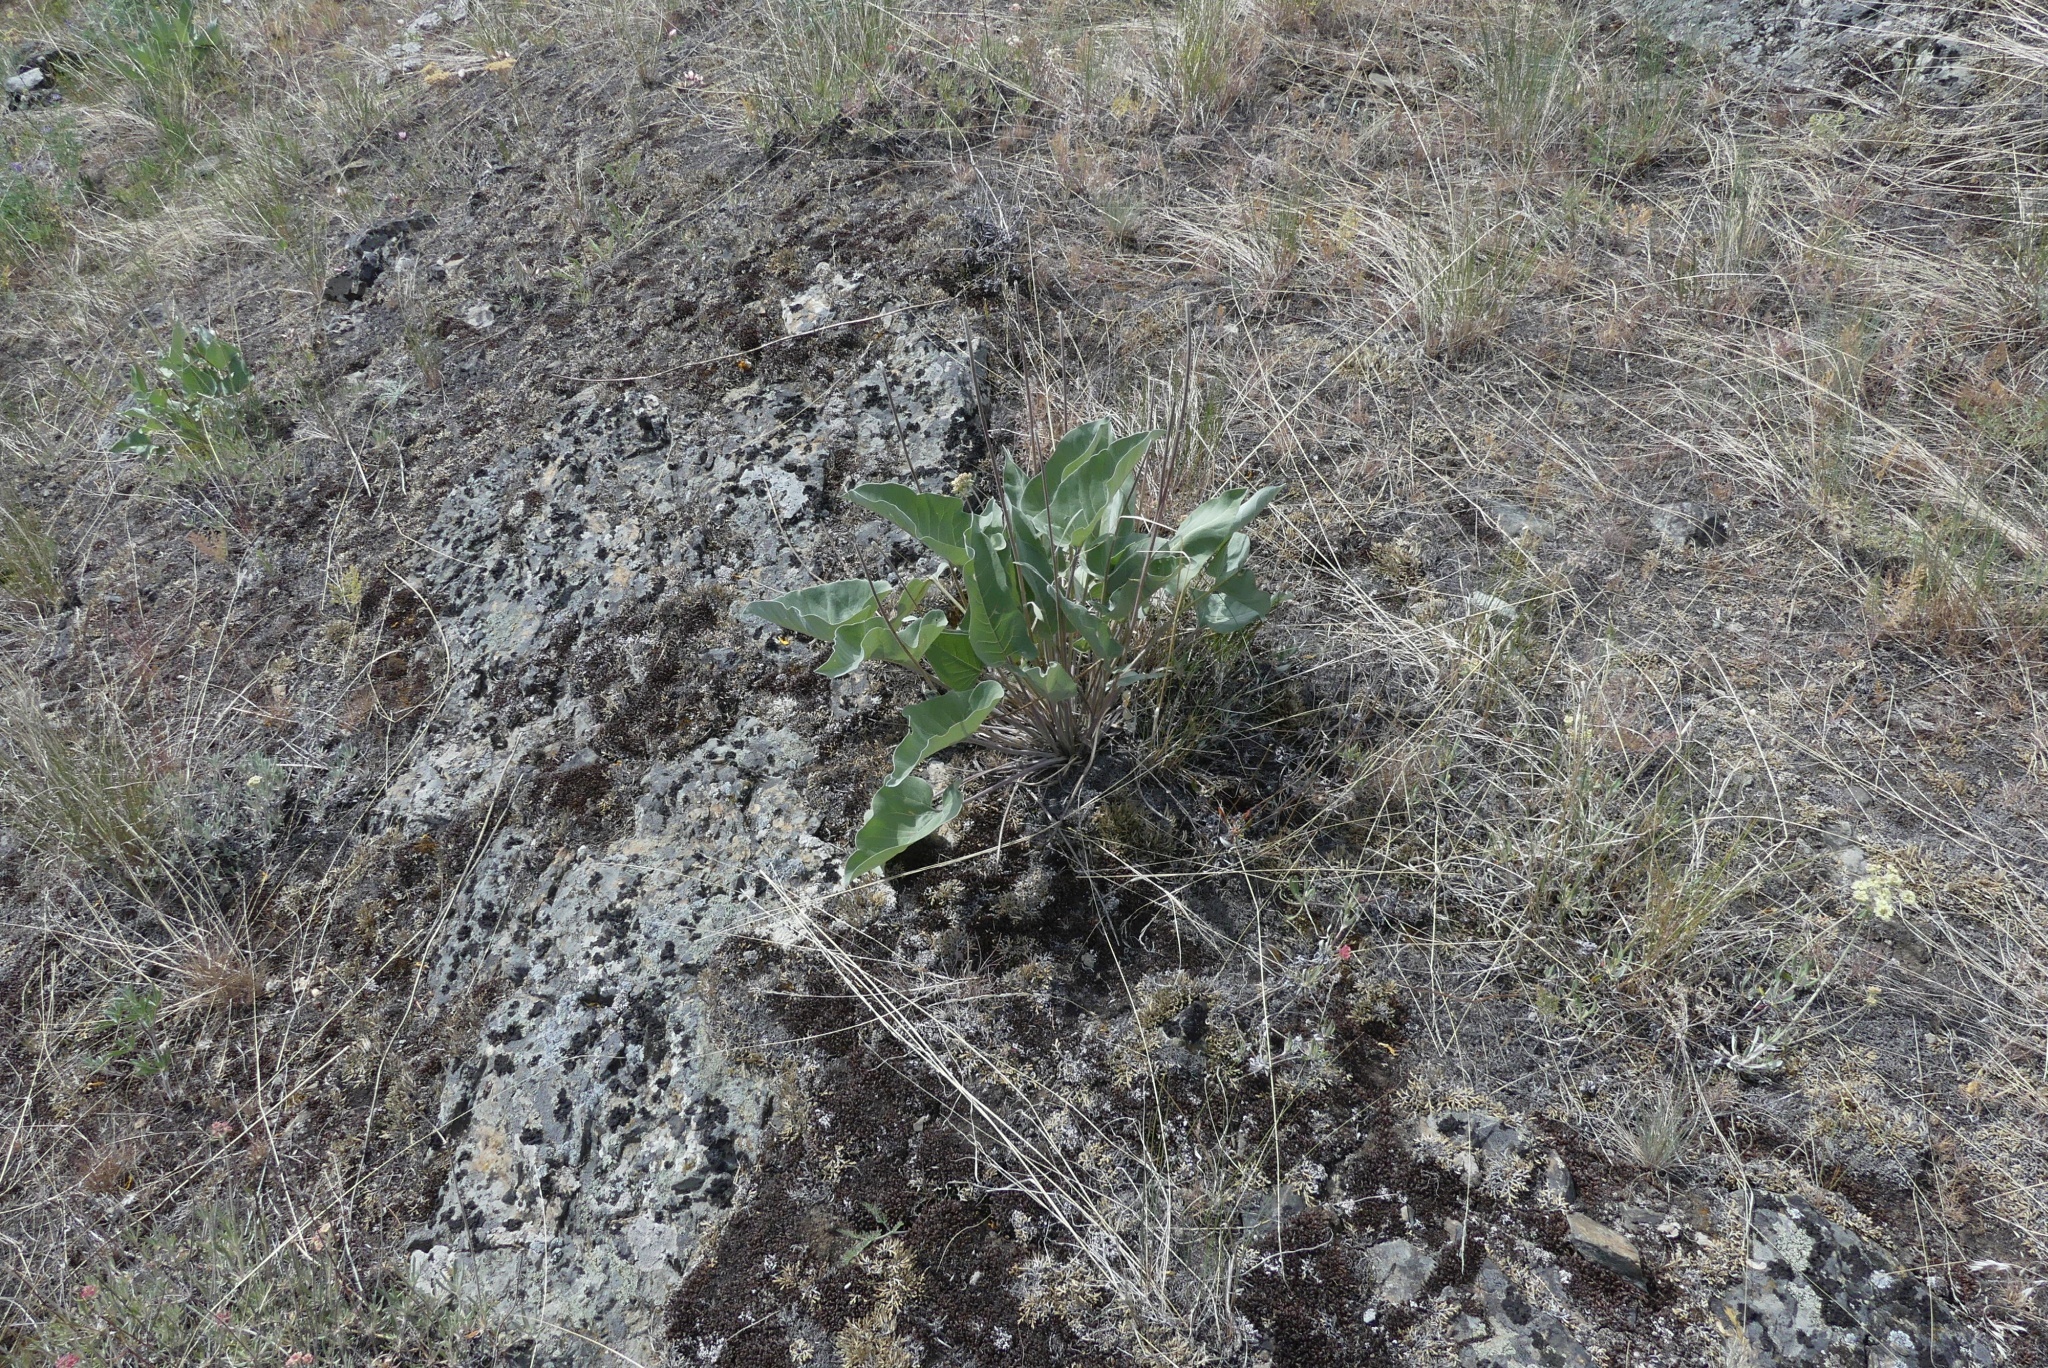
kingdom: Plantae
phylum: Tracheophyta
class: Magnoliopsida
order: Asterales
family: Asteraceae
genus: Wyethia
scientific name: Wyethia sagittata
